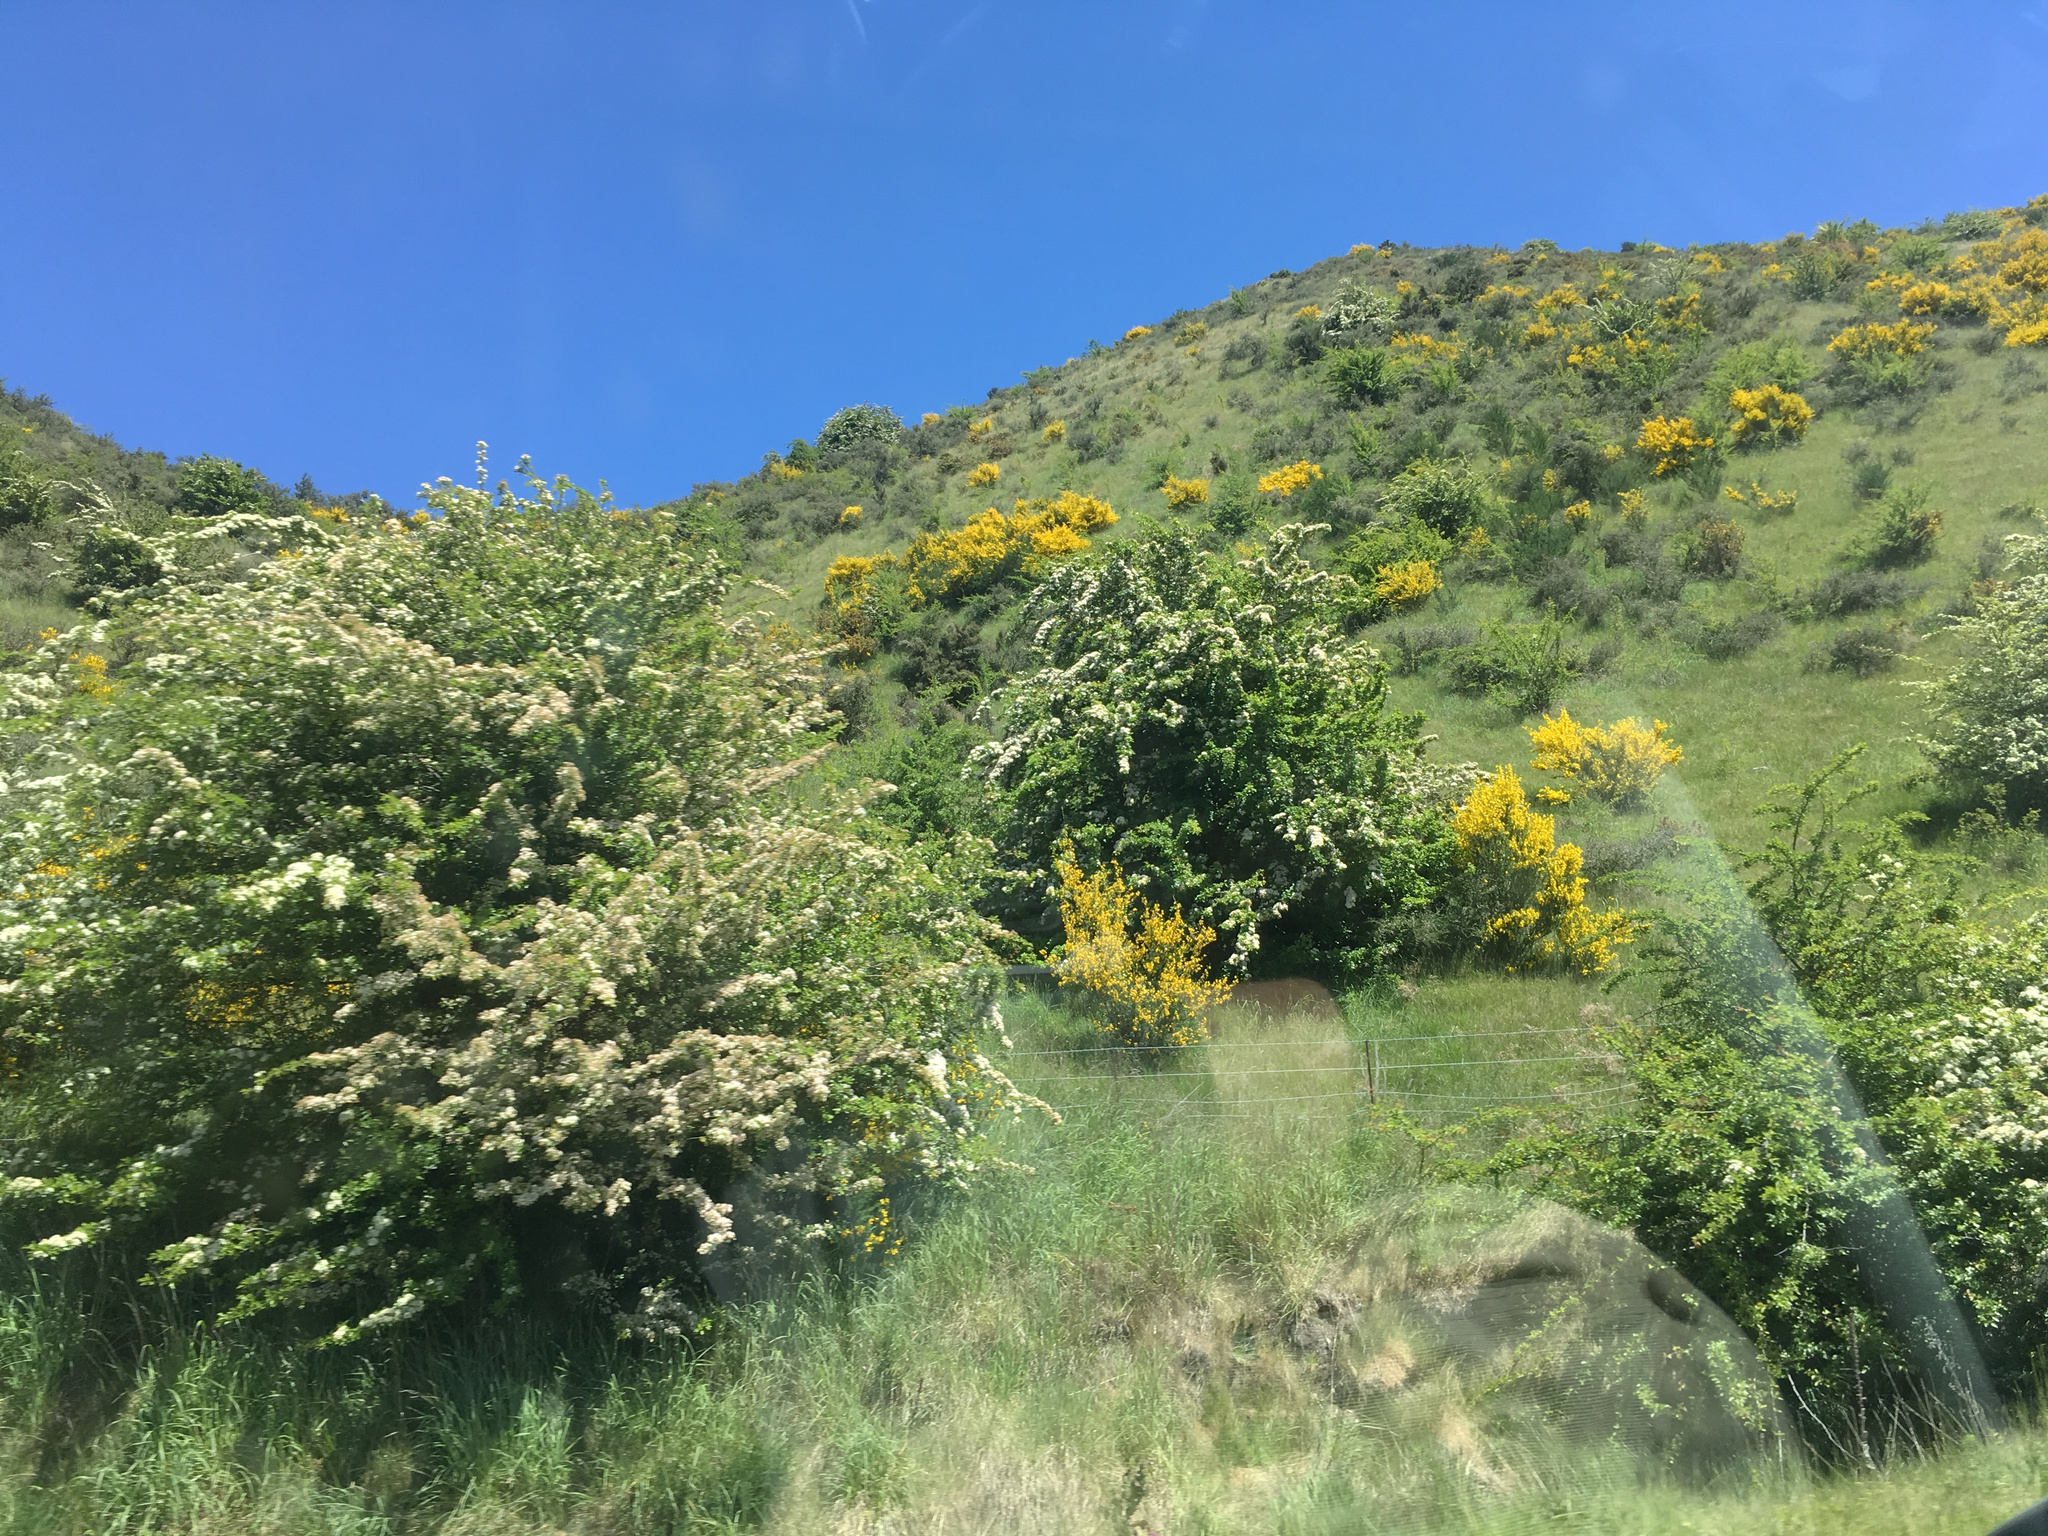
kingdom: Plantae
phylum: Tracheophyta
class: Magnoliopsida
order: Rosales
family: Rosaceae
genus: Crataegus
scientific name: Crataegus monogyna
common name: Hawthorn
